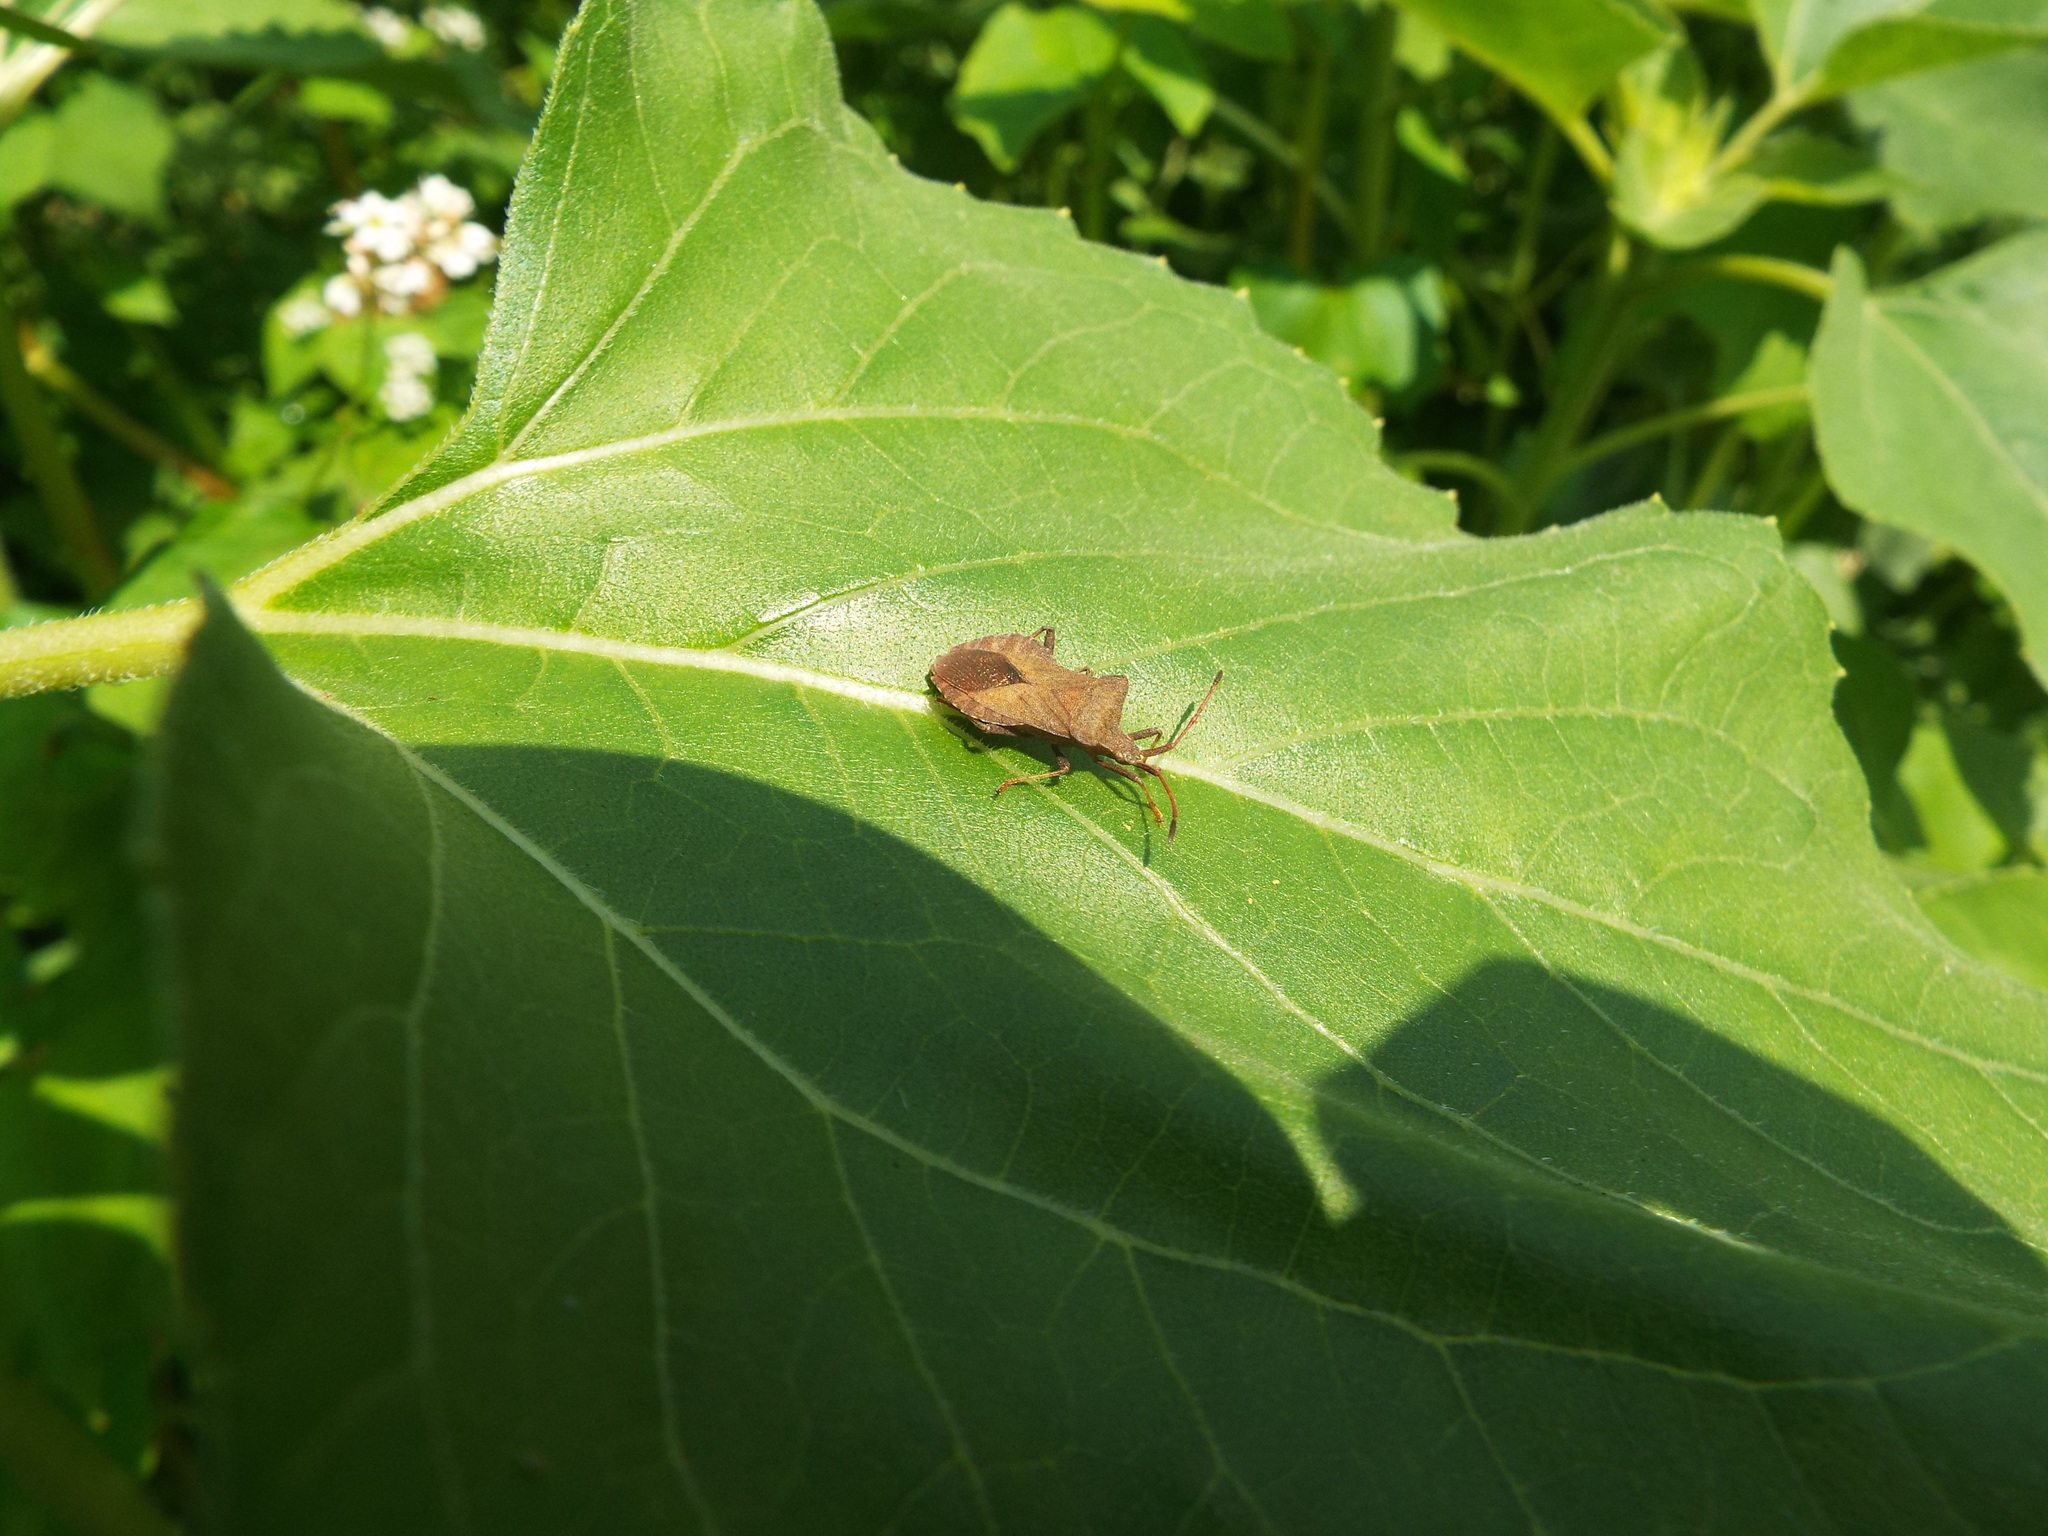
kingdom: Animalia
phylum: Arthropoda
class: Insecta
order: Hemiptera
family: Coreidae
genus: Coreus
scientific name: Coreus marginatus
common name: Dock bug
